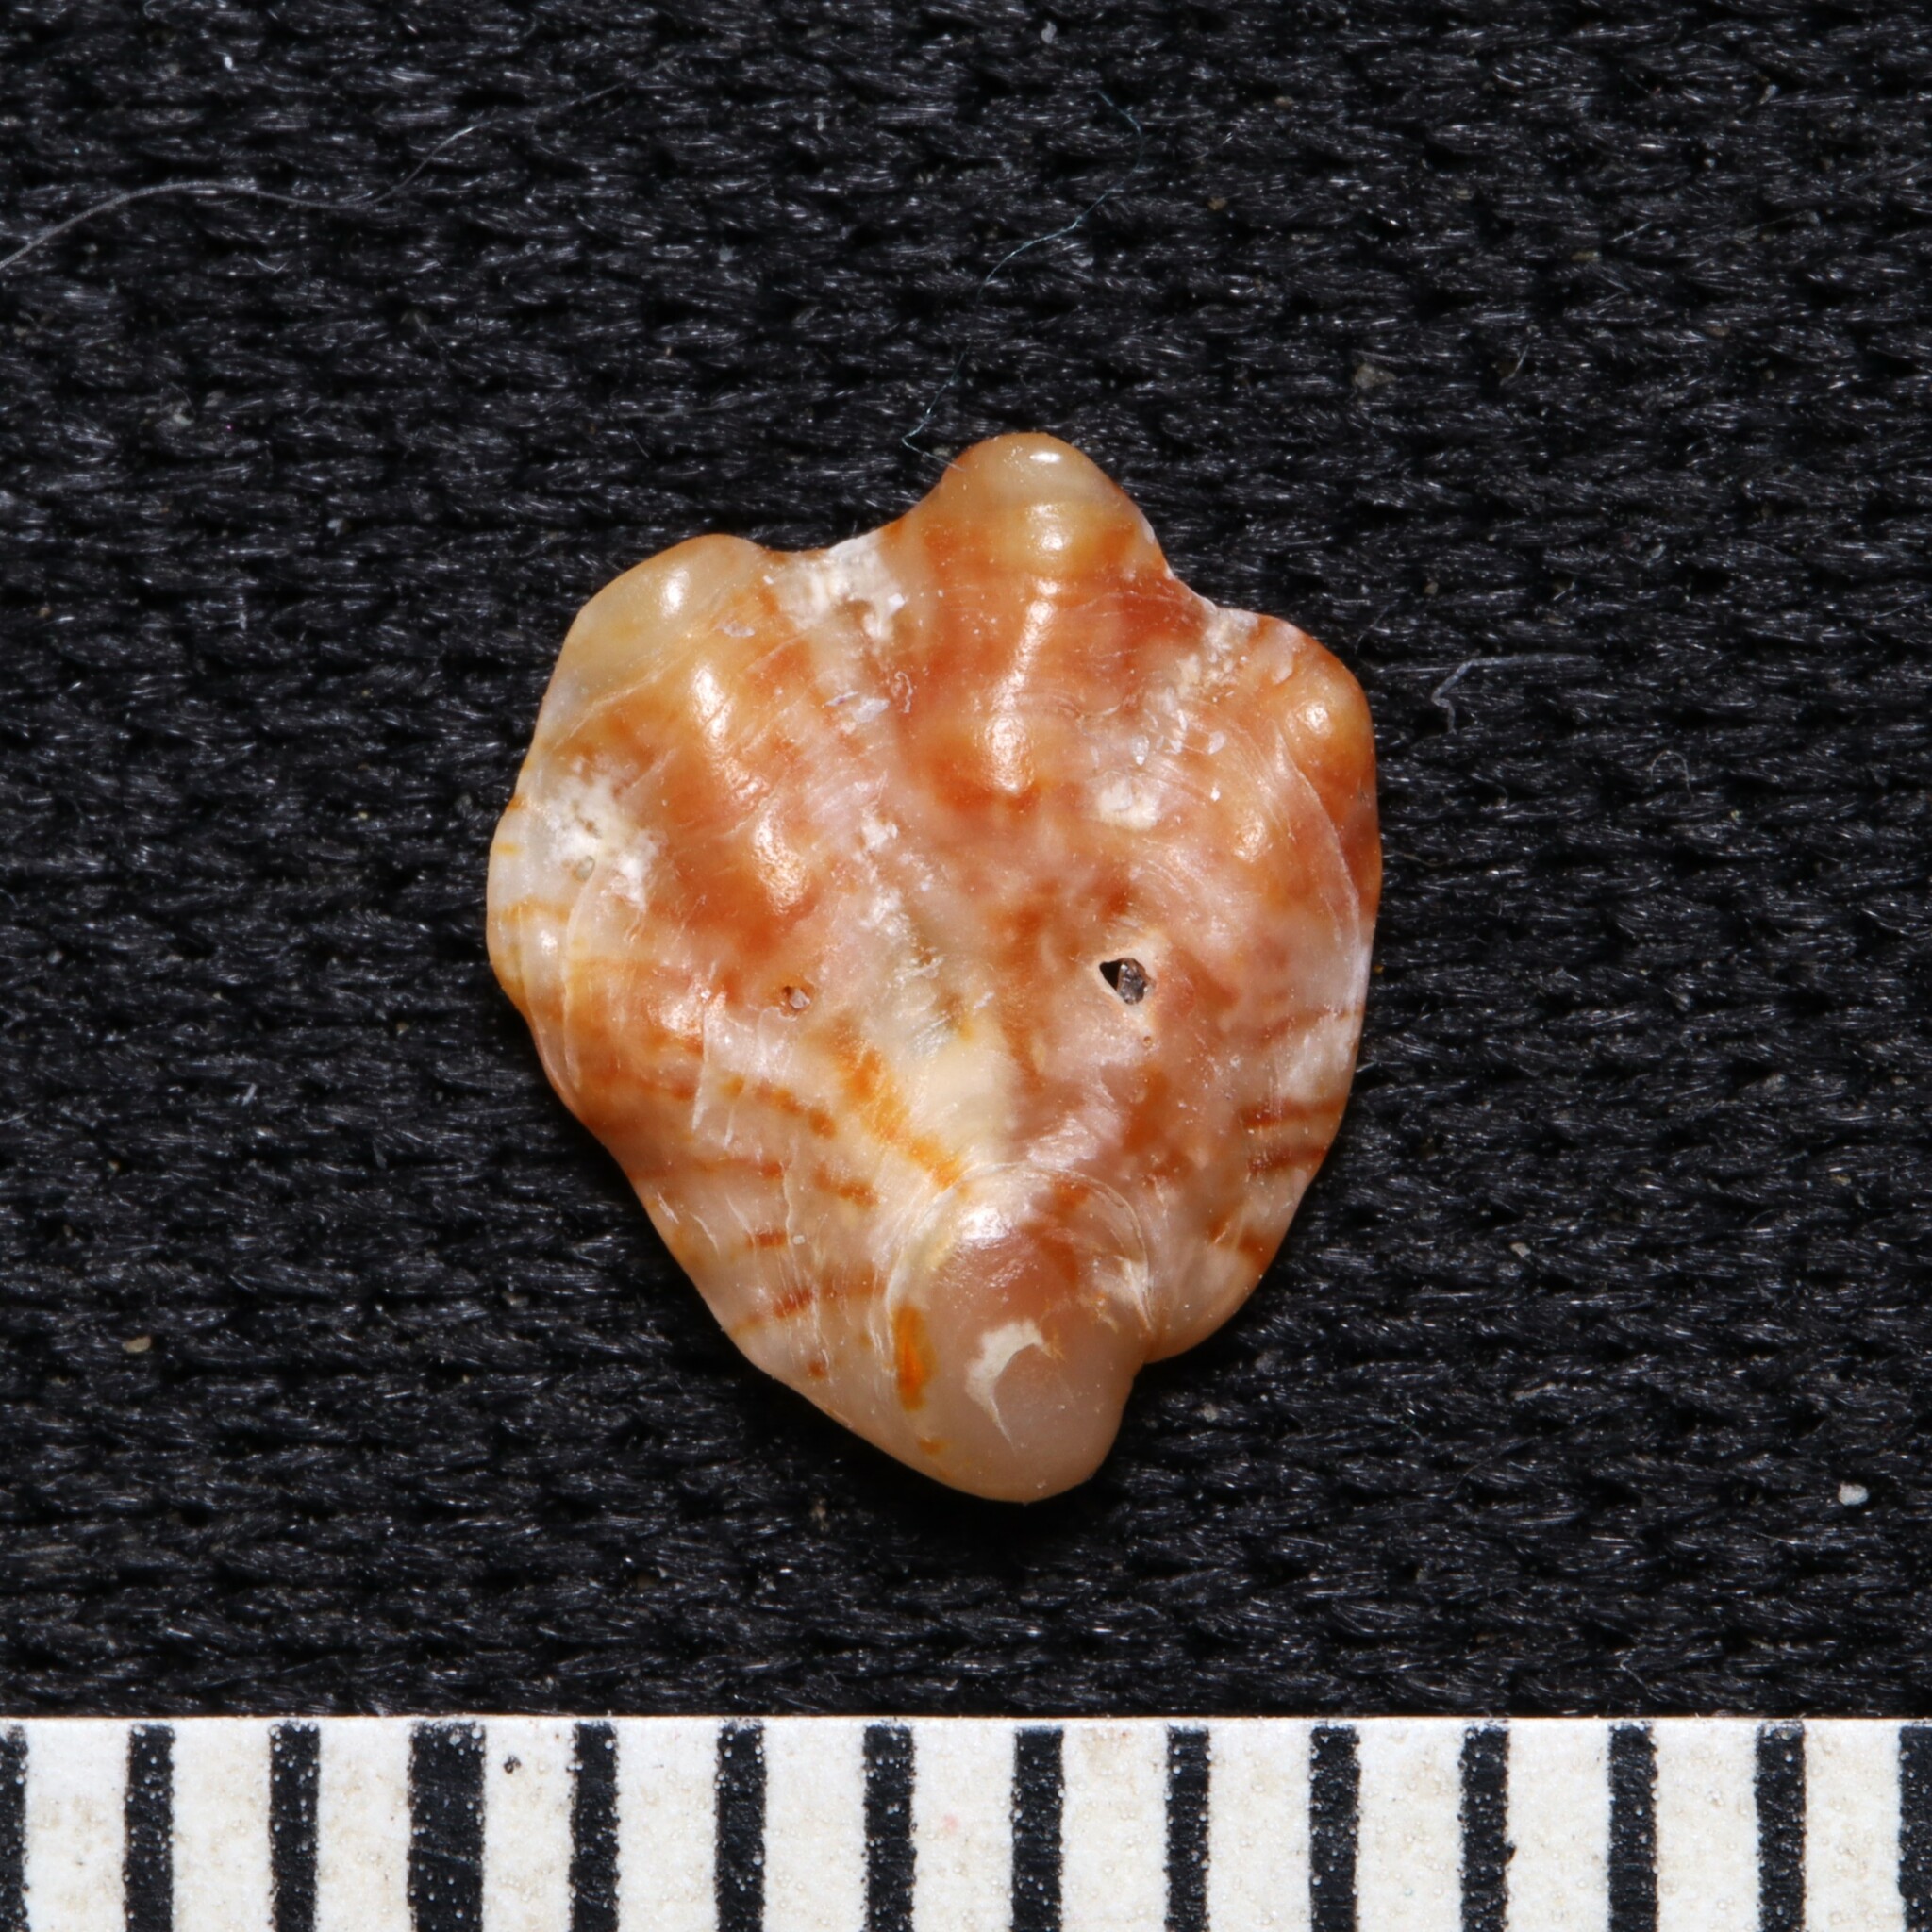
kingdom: Animalia
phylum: Mollusca
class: Bivalvia
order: Pectinida
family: Plicatulidae
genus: Plicatula
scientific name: Plicatula gibbosa
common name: Atlantic kitten's paw
